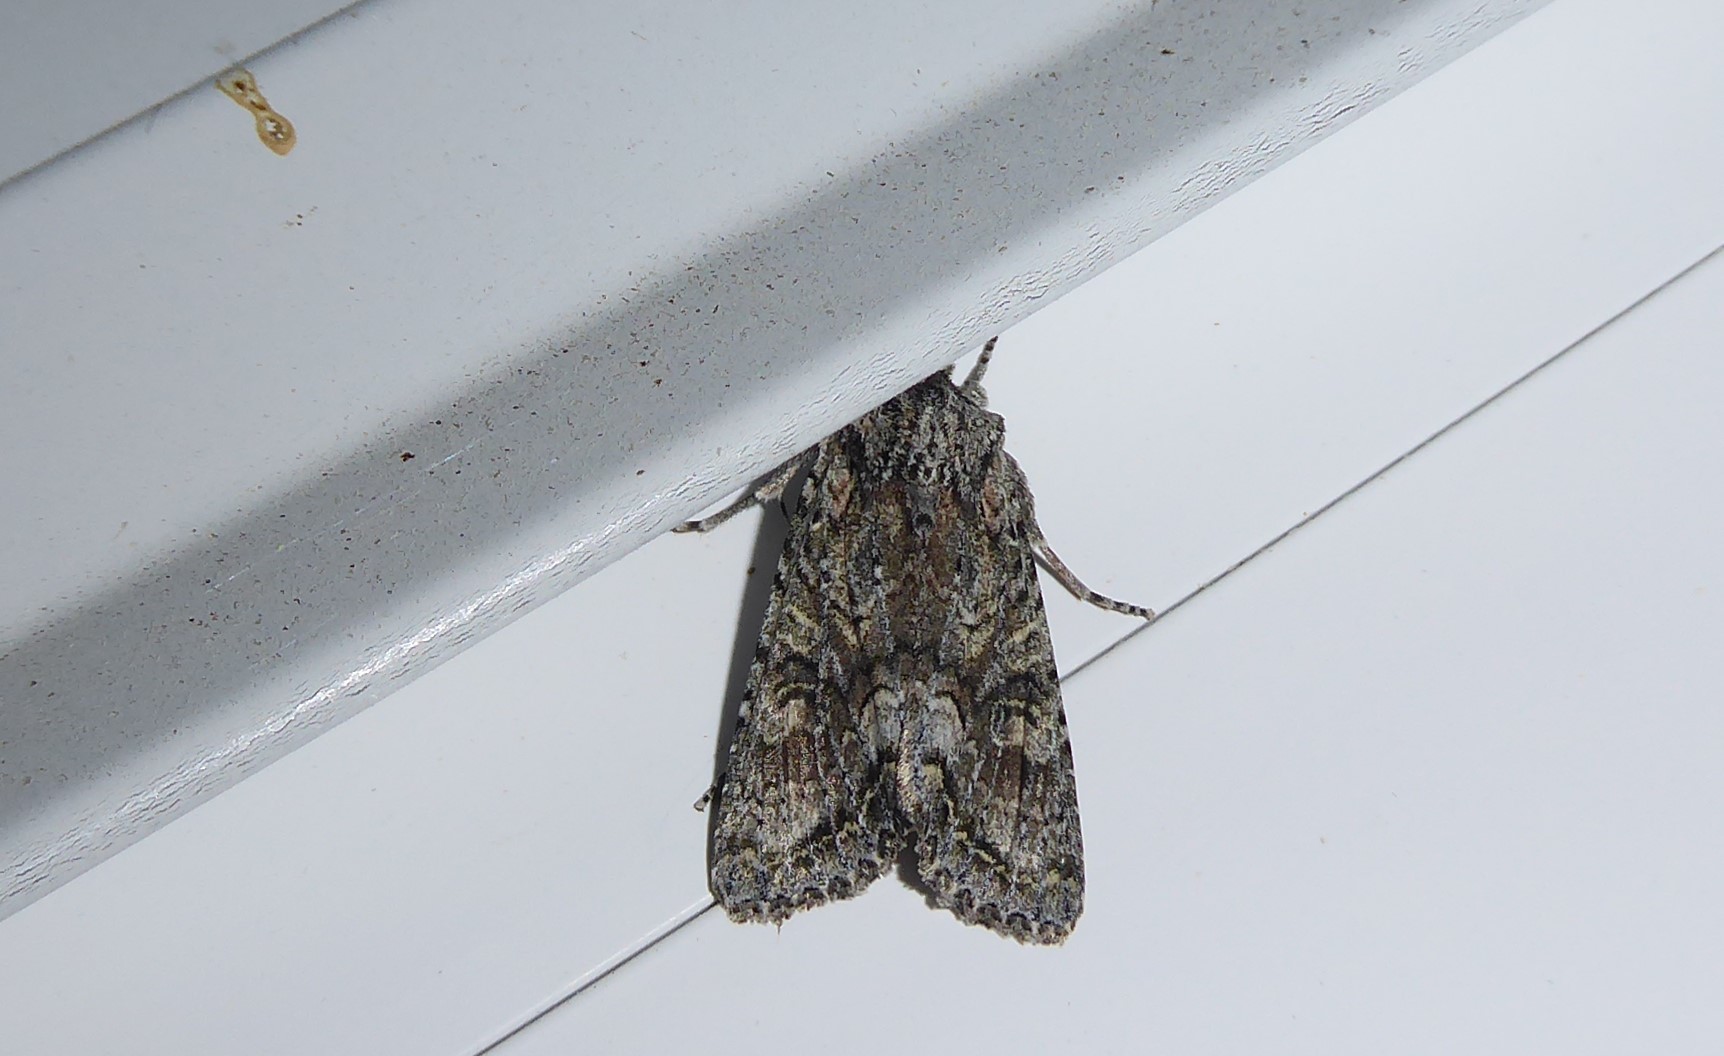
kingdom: Animalia
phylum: Arthropoda
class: Insecta
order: Lepidoptera
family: Noctuidae
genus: Ichneutica
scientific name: Ichneutica mutans
